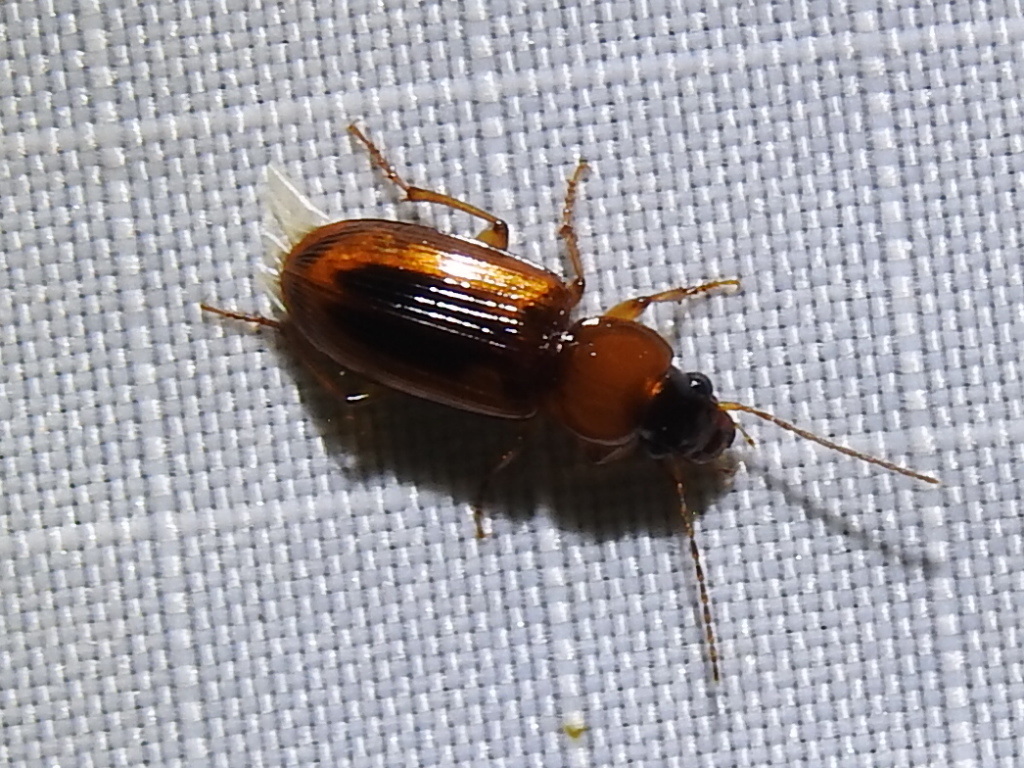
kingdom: Animalia
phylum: Arthropoda
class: Insecta
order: Coleoptera
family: Carabidae
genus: Stenolophus
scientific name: Stenolophus dissimilis
